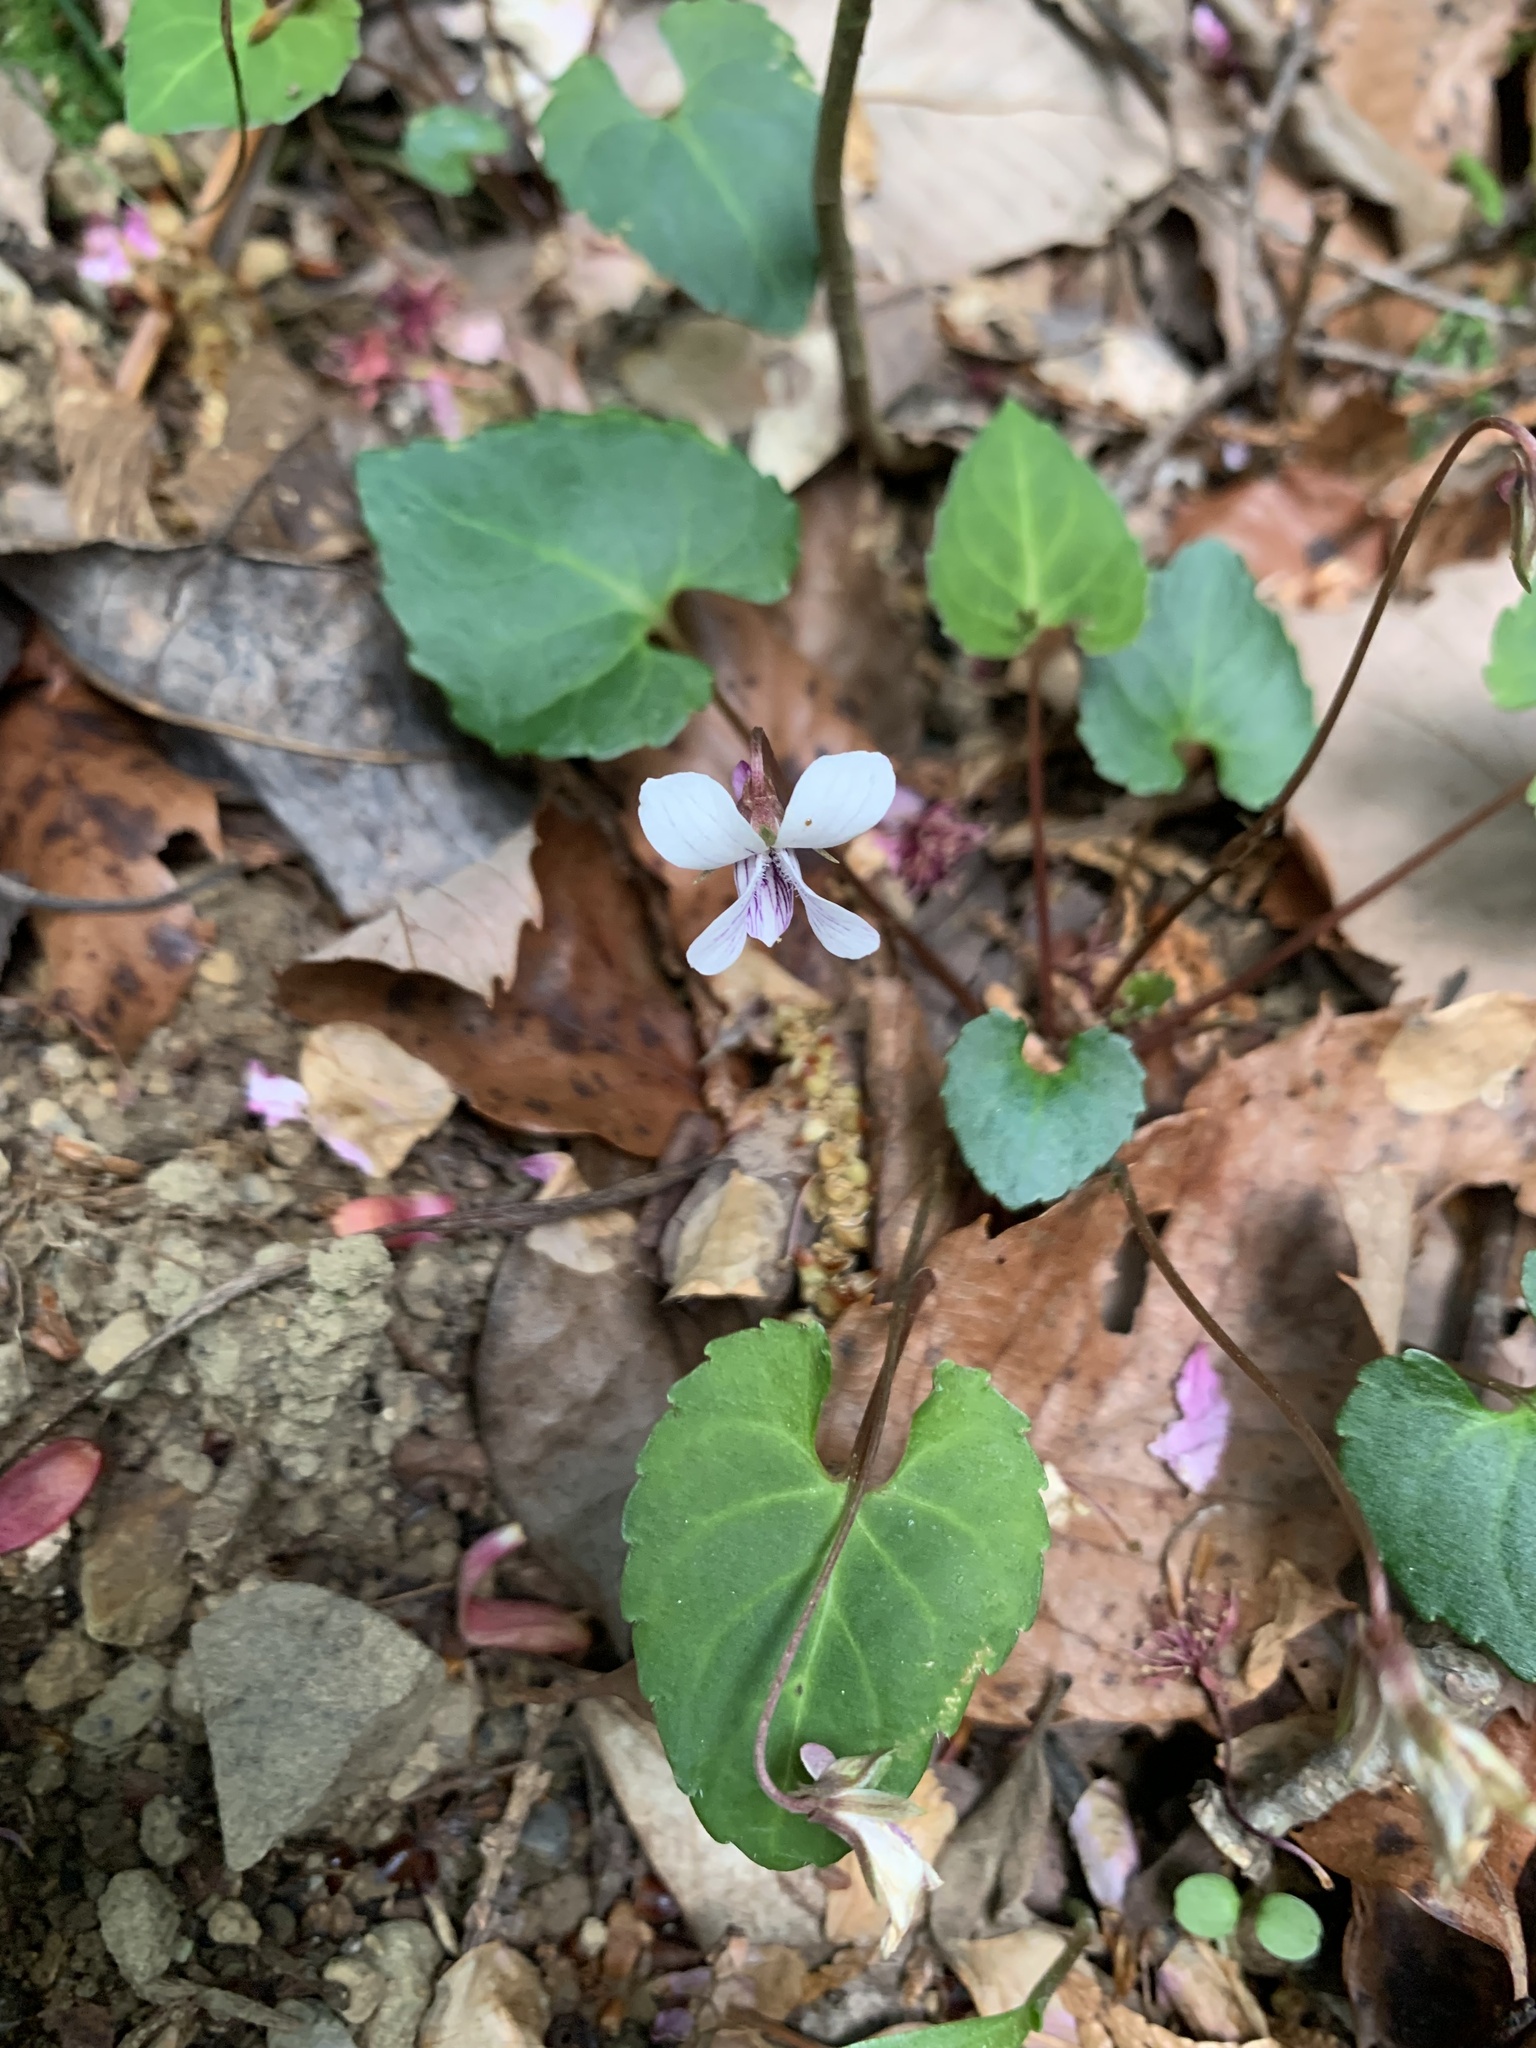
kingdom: Plantae
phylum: Tracheophyta
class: Magnoliopsida
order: Malpighiales
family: Violaceae
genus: Viola
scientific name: Viola sieboldii
